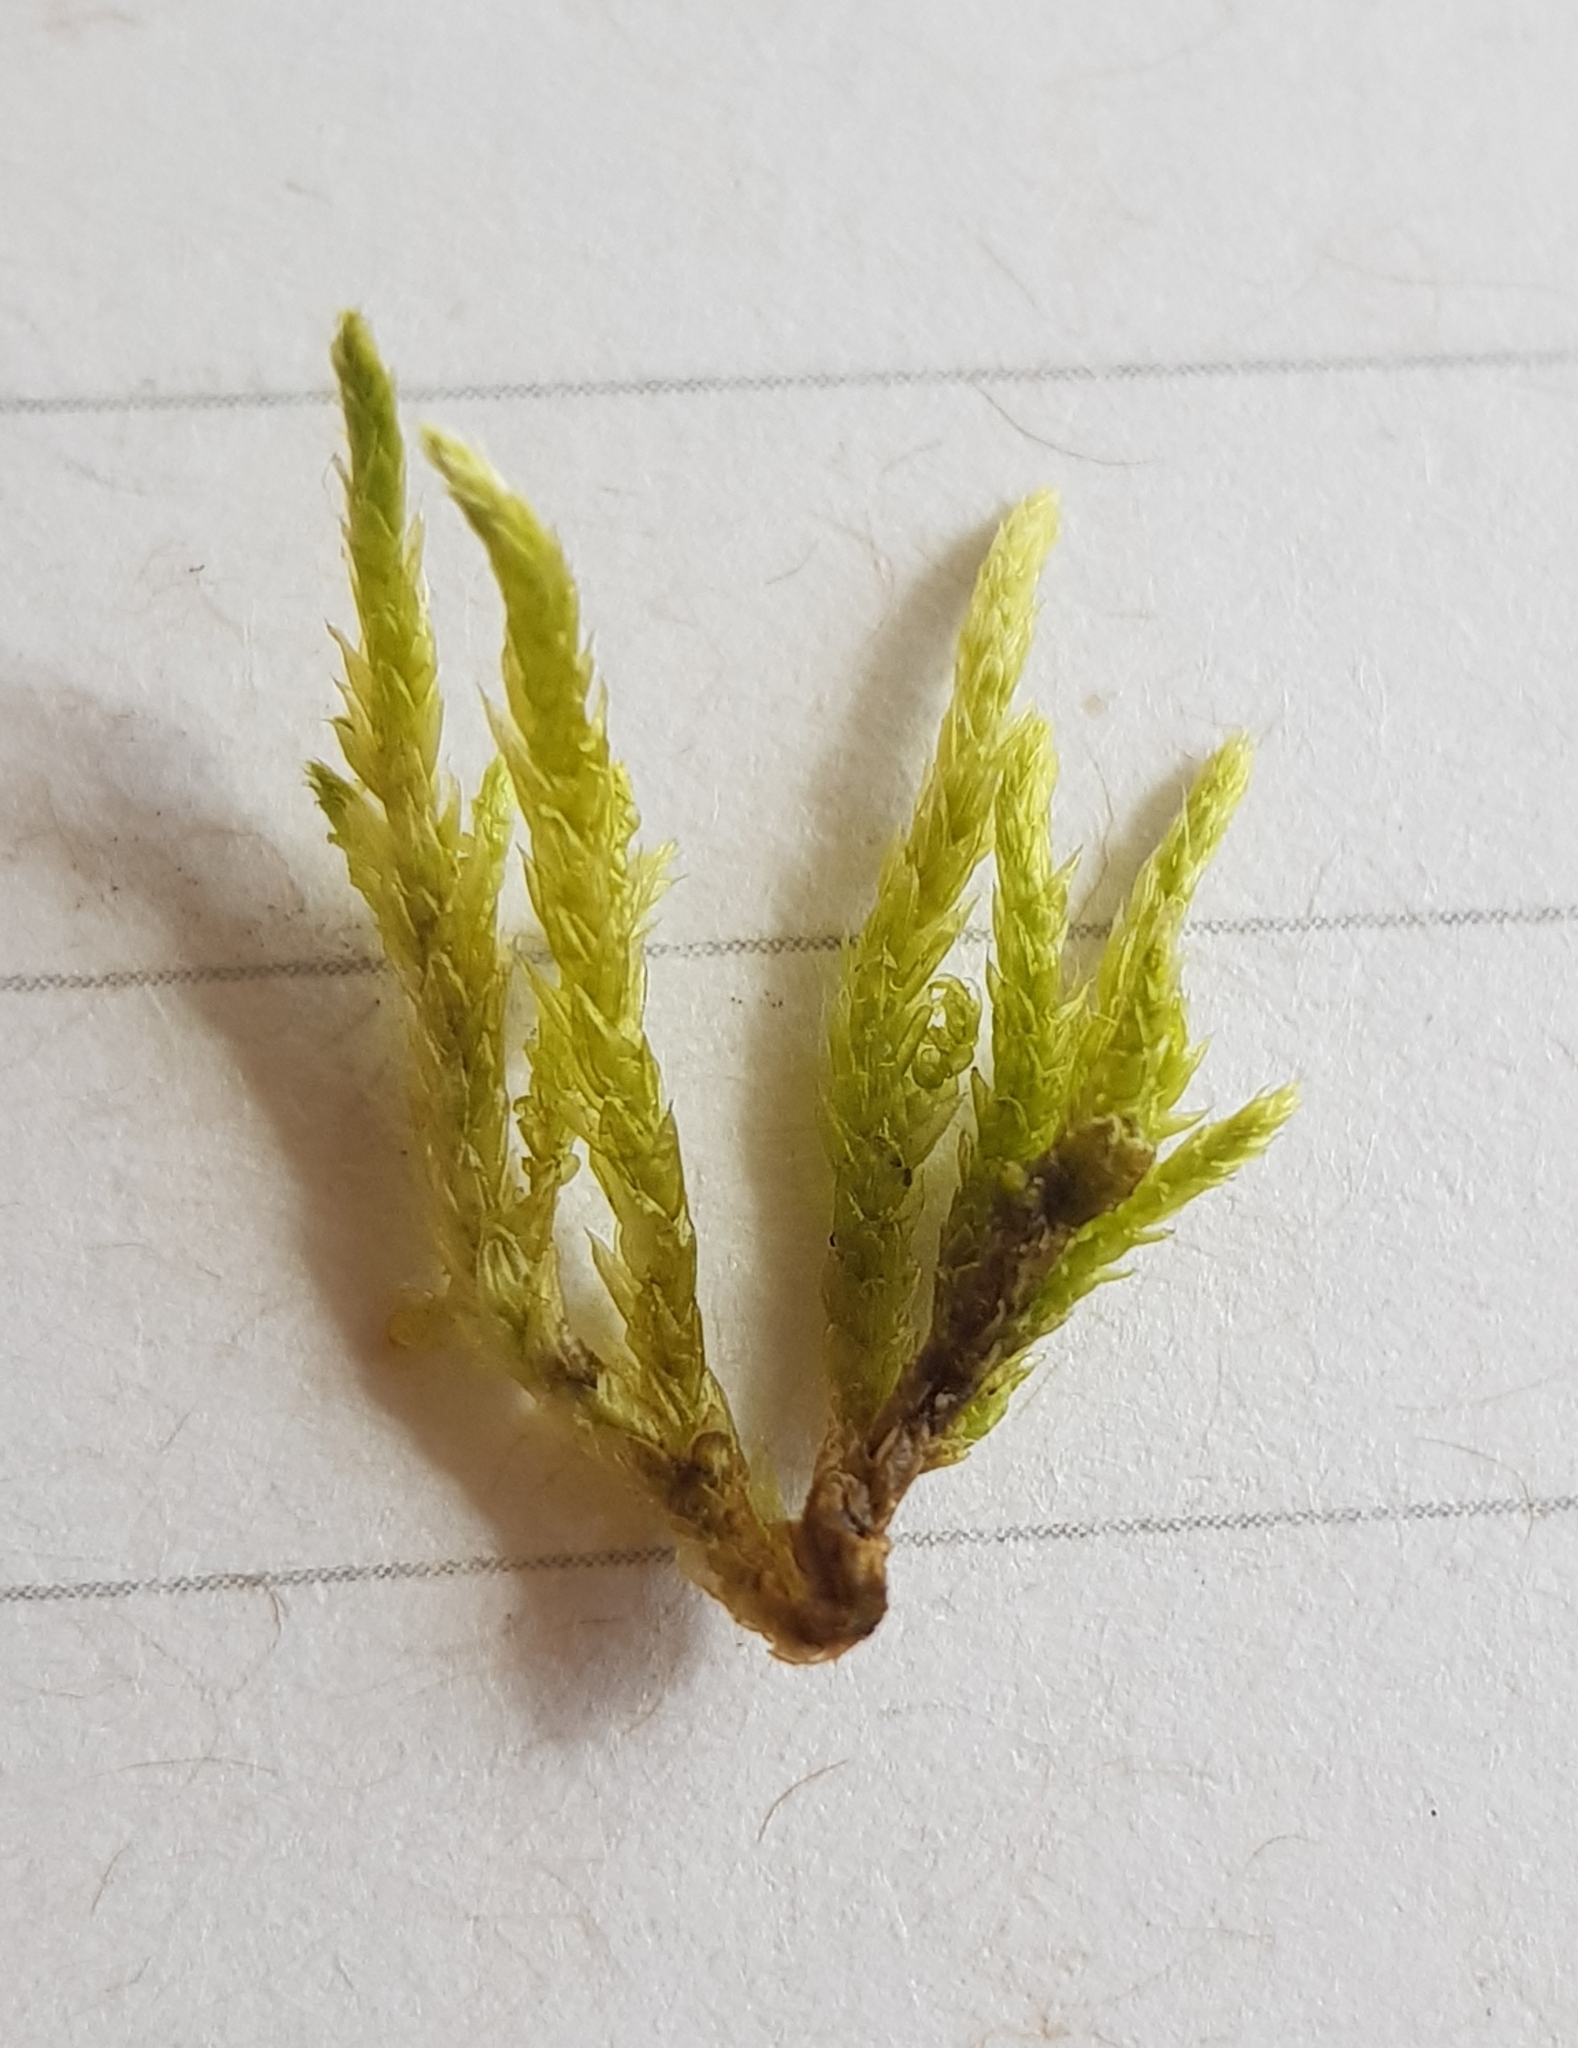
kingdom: Plantae
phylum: Bryophyta
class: Bryopsida
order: Hypnales
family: Brachytheciaceae
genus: Brachythecium
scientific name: Brachythecium rivulare
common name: River ragged moss
